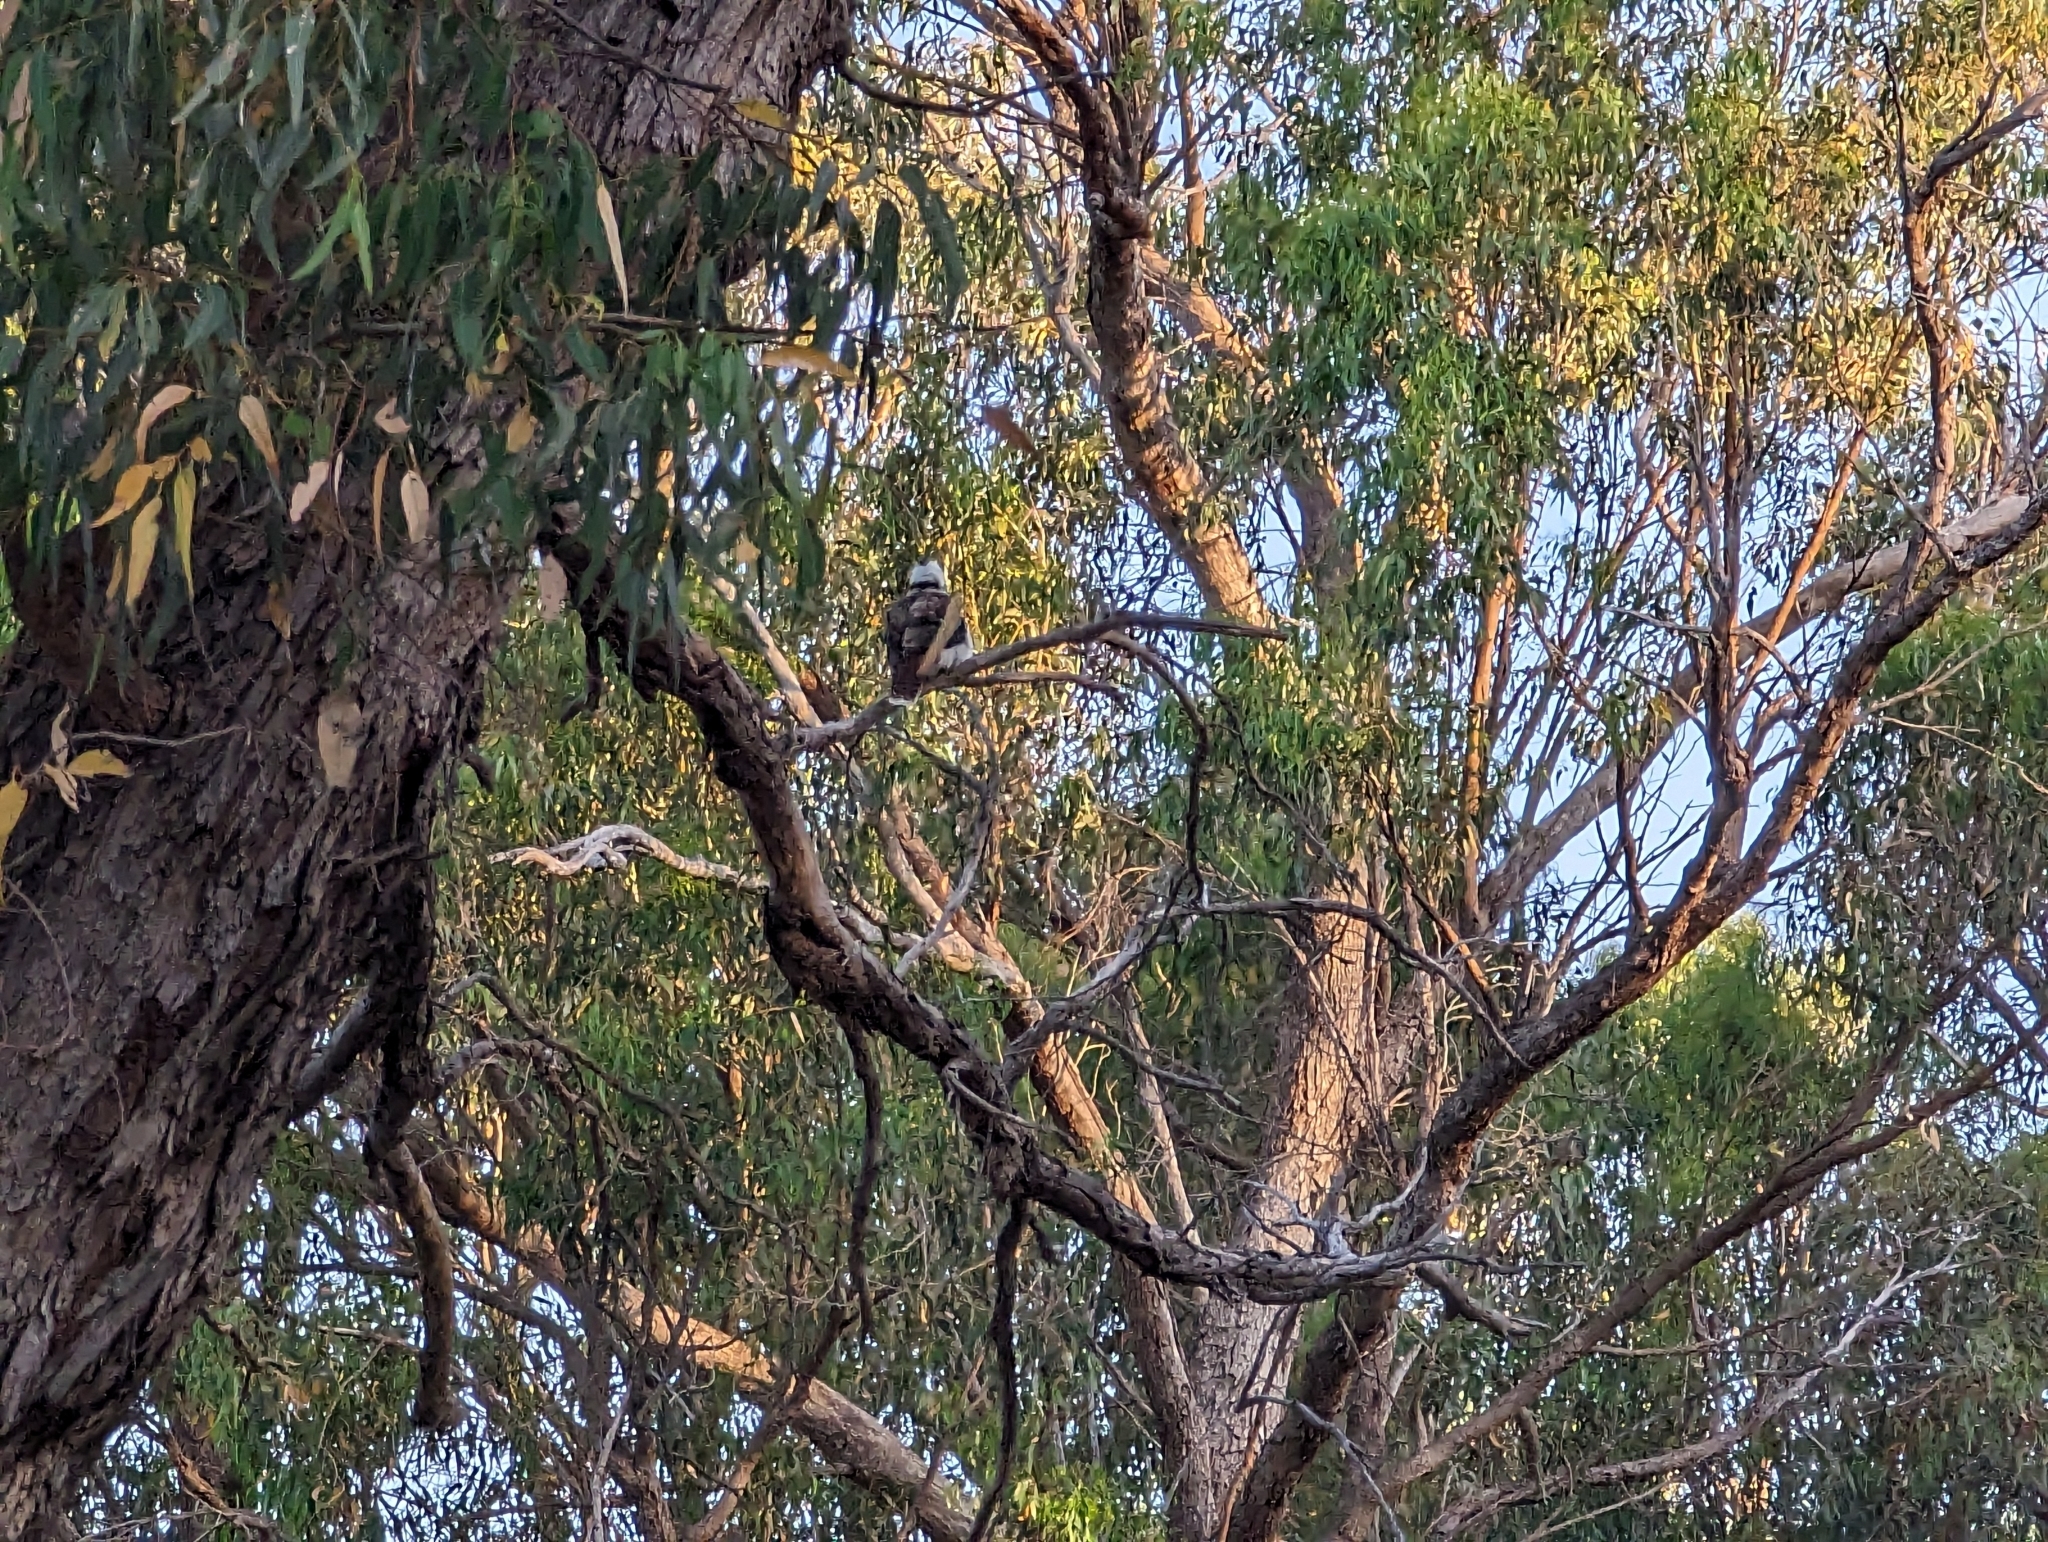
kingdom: Animalia
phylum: Chordata
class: Aves
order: Coraciiformes
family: Alcedinidae
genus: Dacelo
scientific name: Dacelo novaeguineae
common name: Laughing kookaburra
